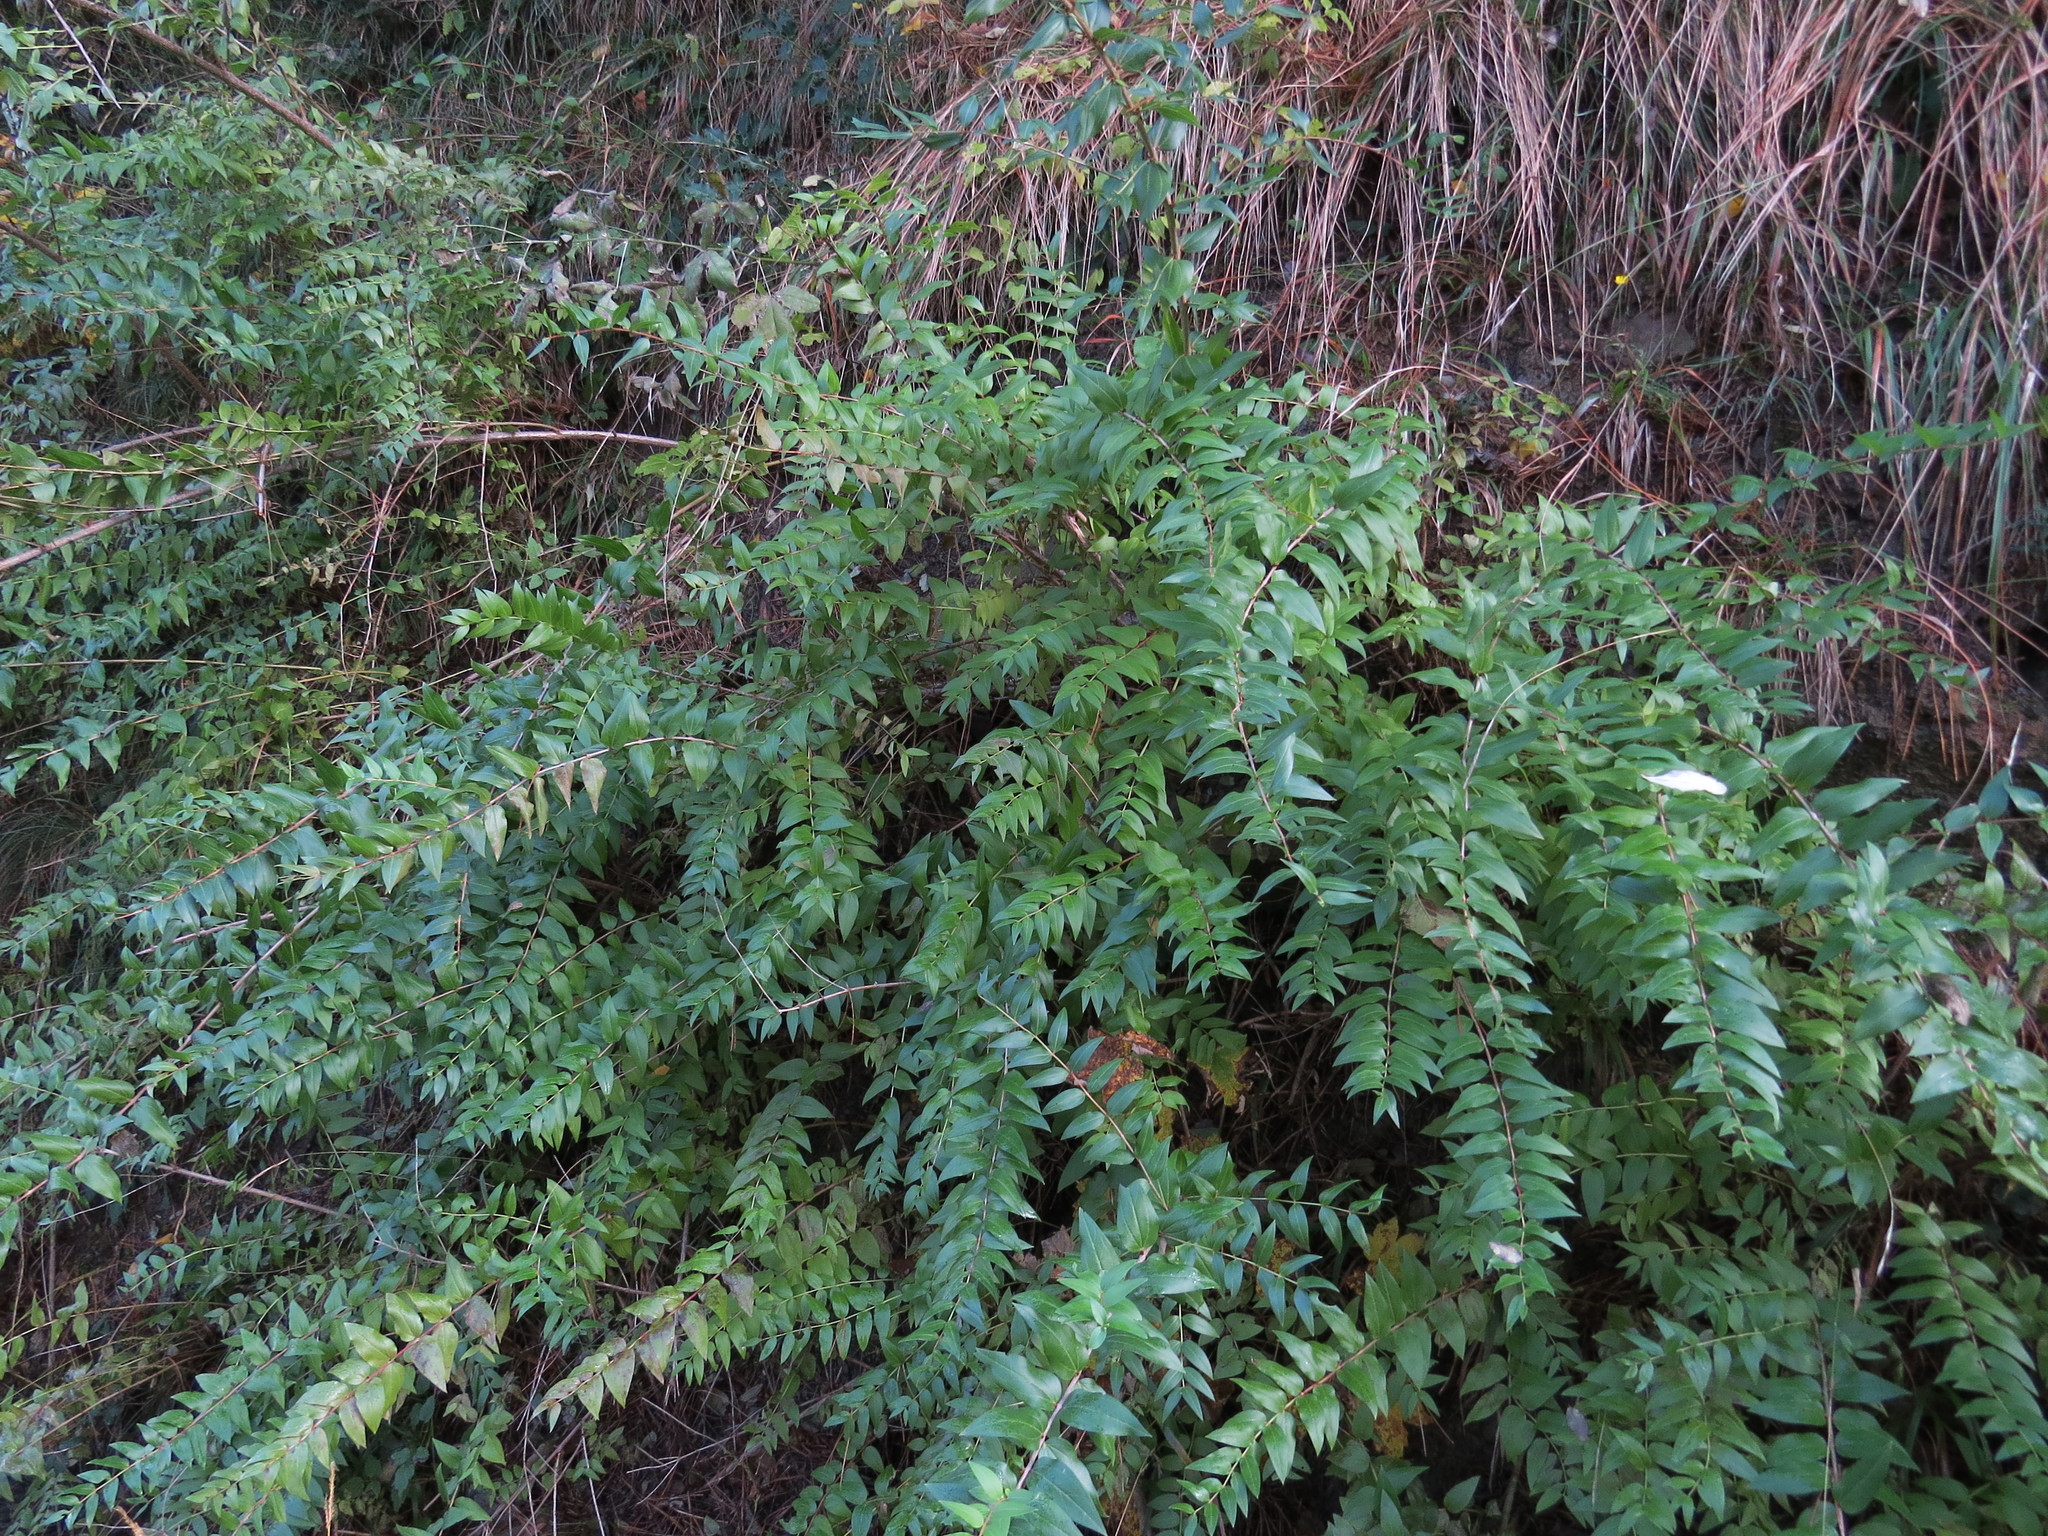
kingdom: Plantae
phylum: Tracheophyta
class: Magnoliopsida
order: Cucurbitales
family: Coriariaceae
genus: Coriaria
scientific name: Coriaria myrtifolia
